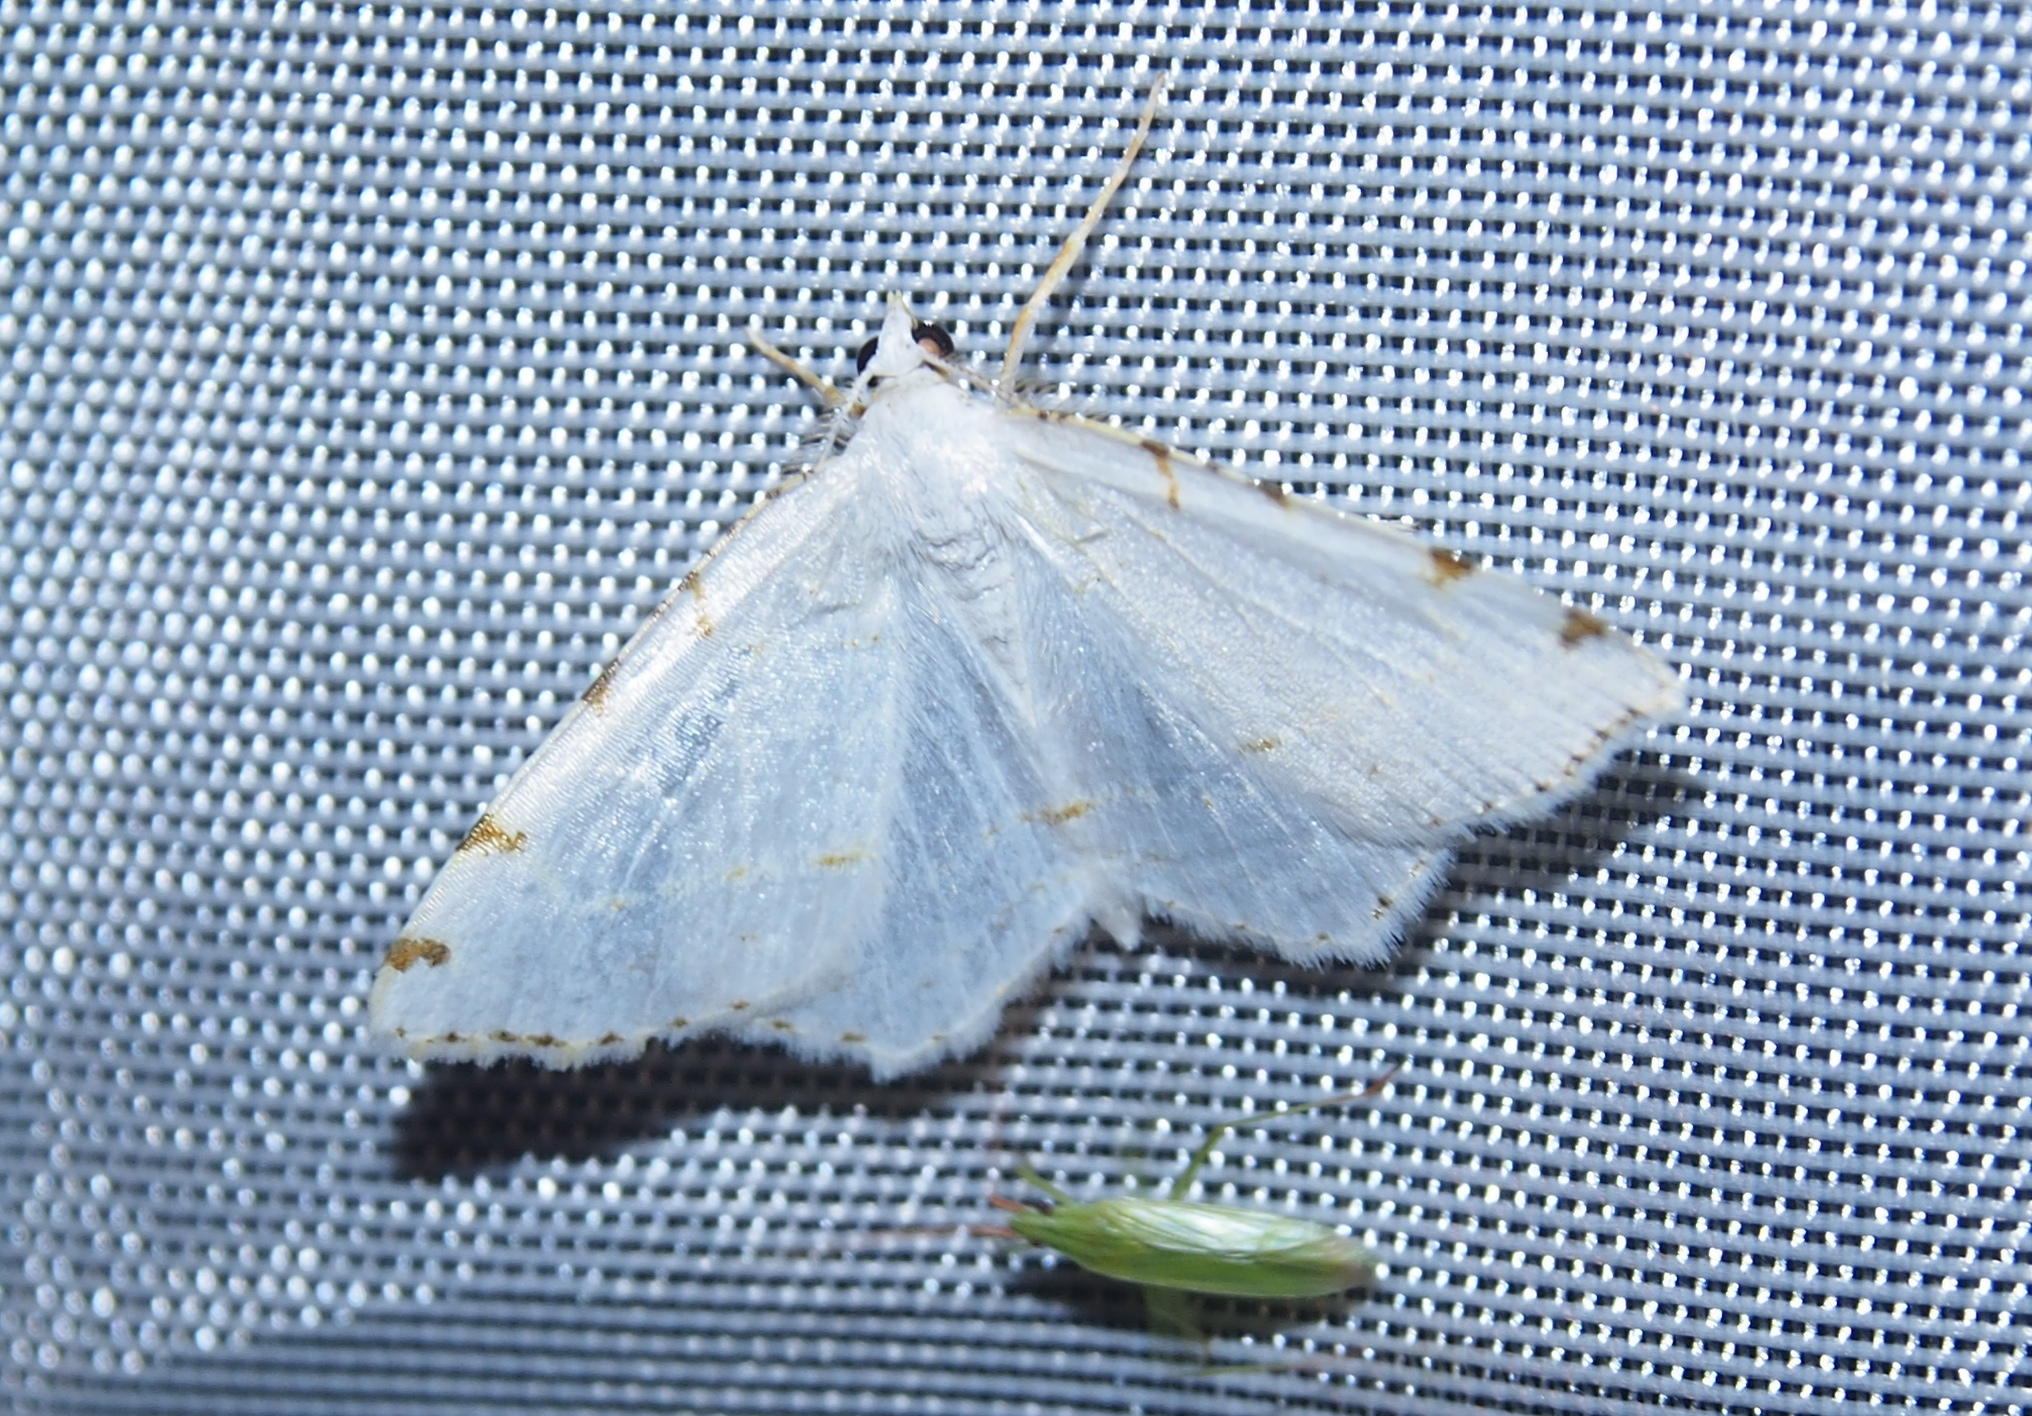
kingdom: Animalia
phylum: Arthropoda
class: Insecta
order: Lepidoptera
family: Geometridae
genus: Macaria
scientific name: Macaria pustularia
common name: Lesser maple spanworm moth
